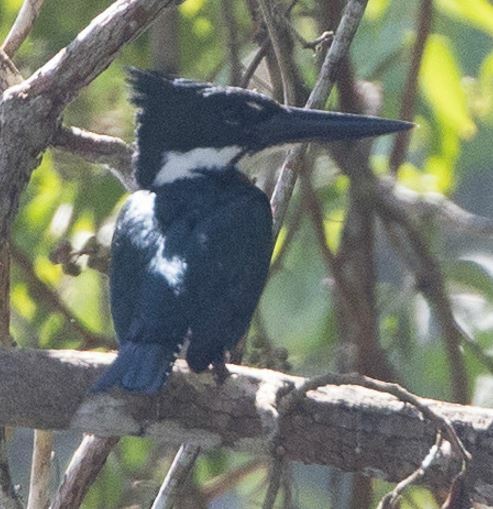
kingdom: Animalia
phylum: Chordata
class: Aves
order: Coraciiformes
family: Alcedinidae
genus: Chloroceryle
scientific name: Chloroceryle amazona
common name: Amazon kingfisher
